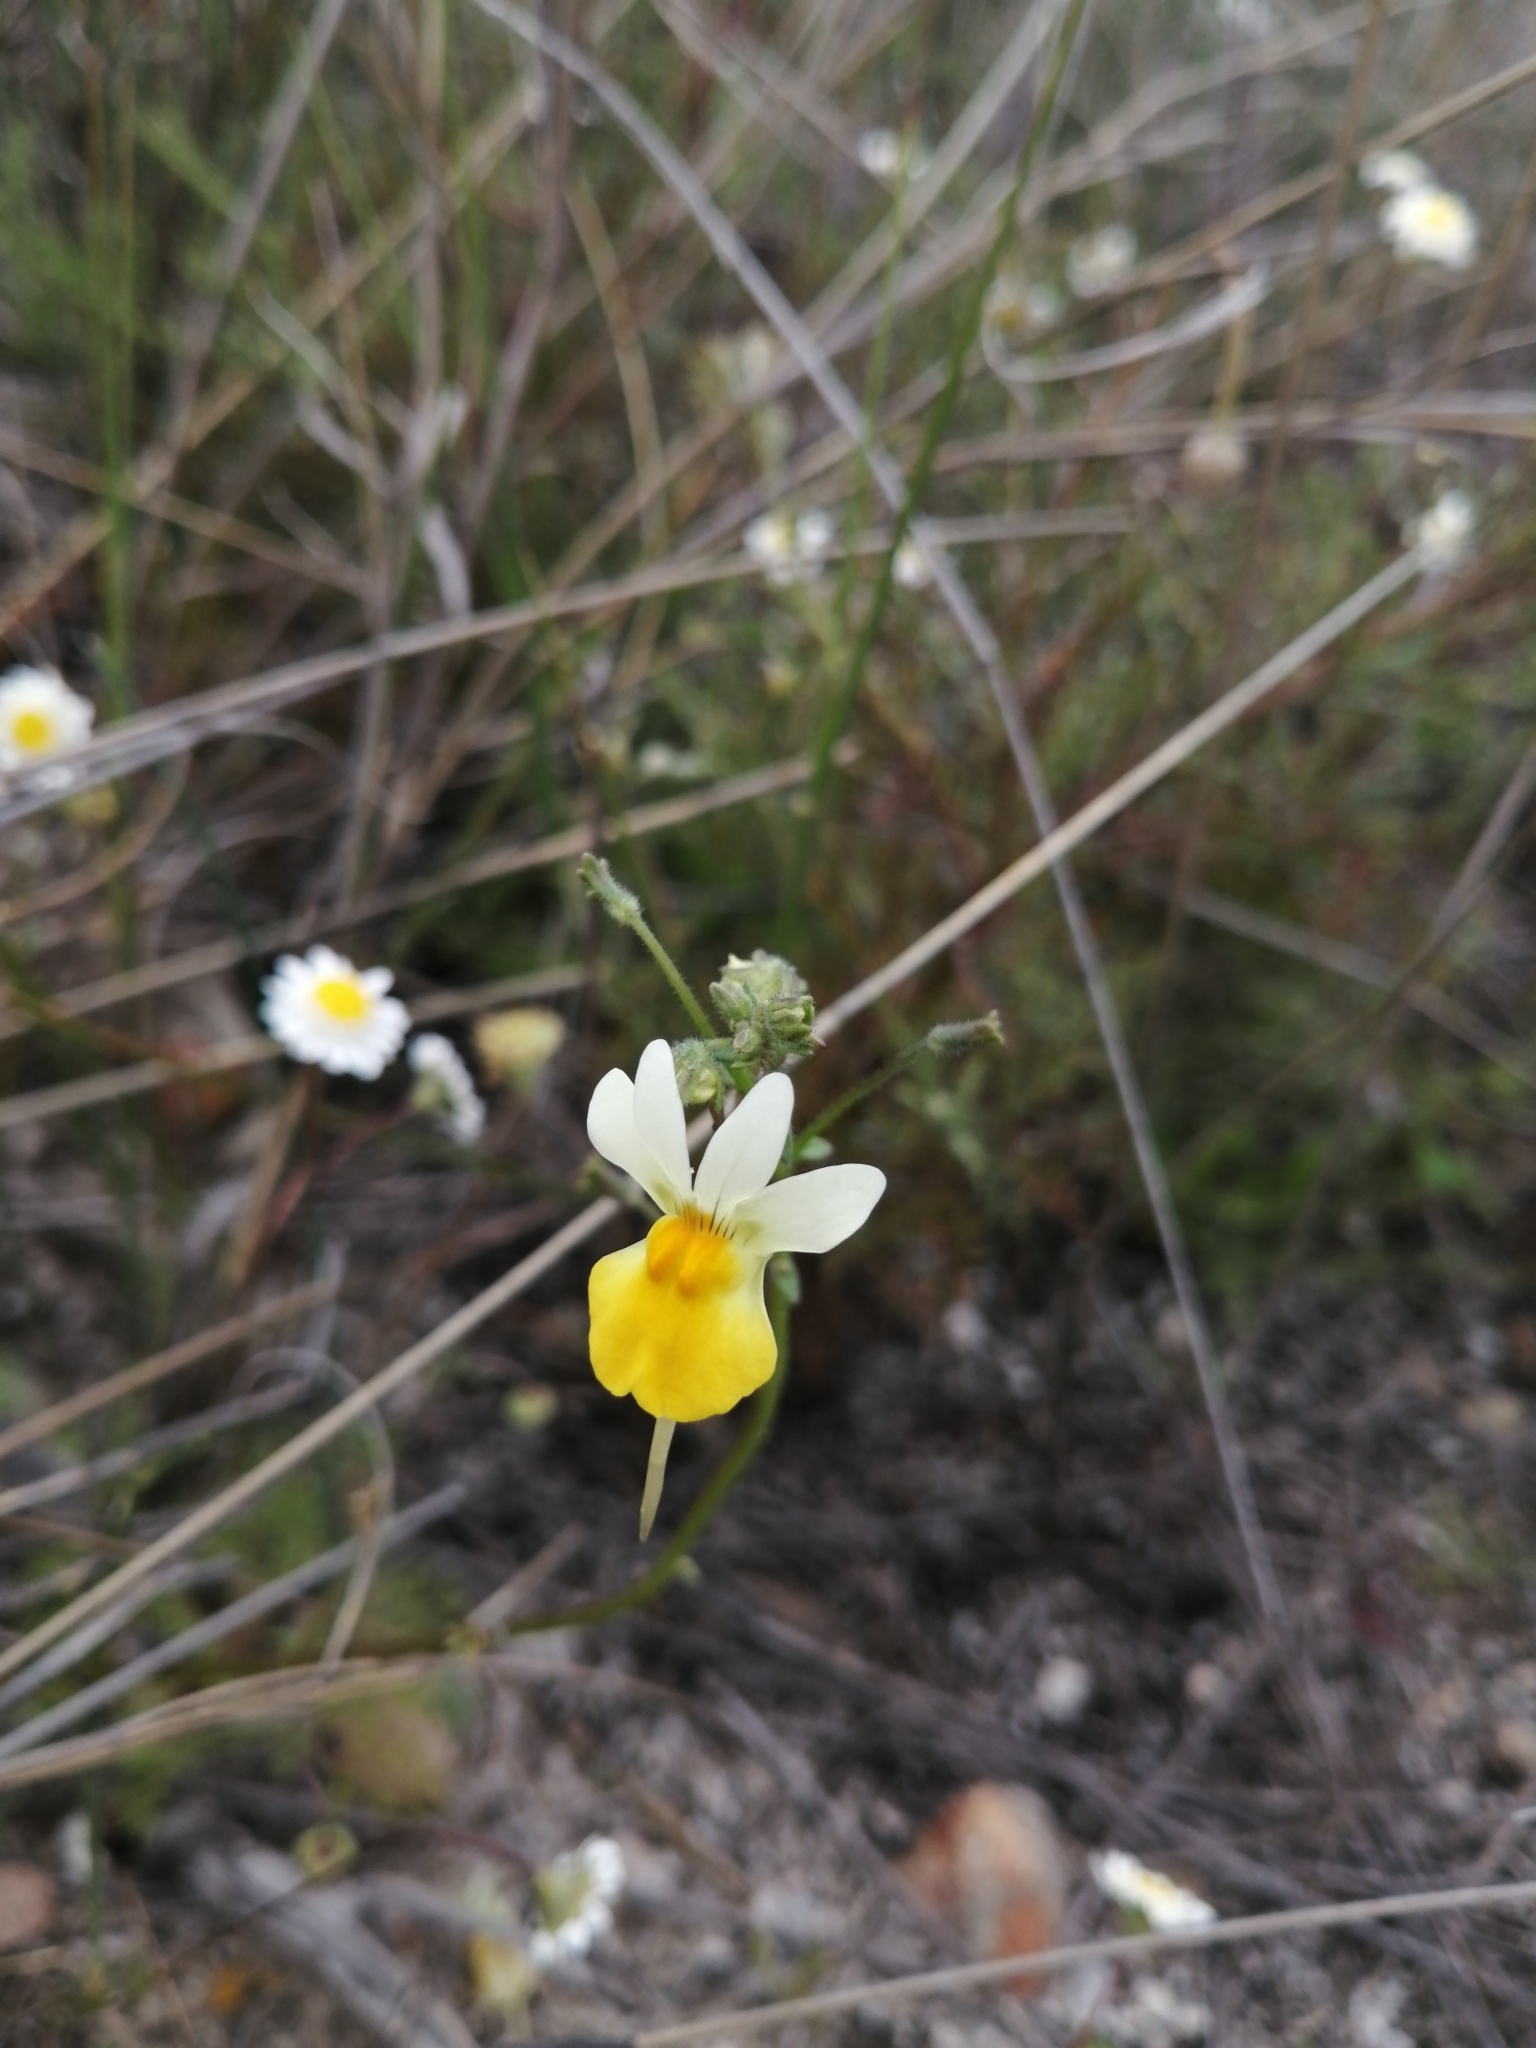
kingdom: Plantae
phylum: Tracheophyta
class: Magnoliopsida
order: Lamiales
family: Scrophulariaceae
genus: Nemesia
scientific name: Nemesia ligulata
